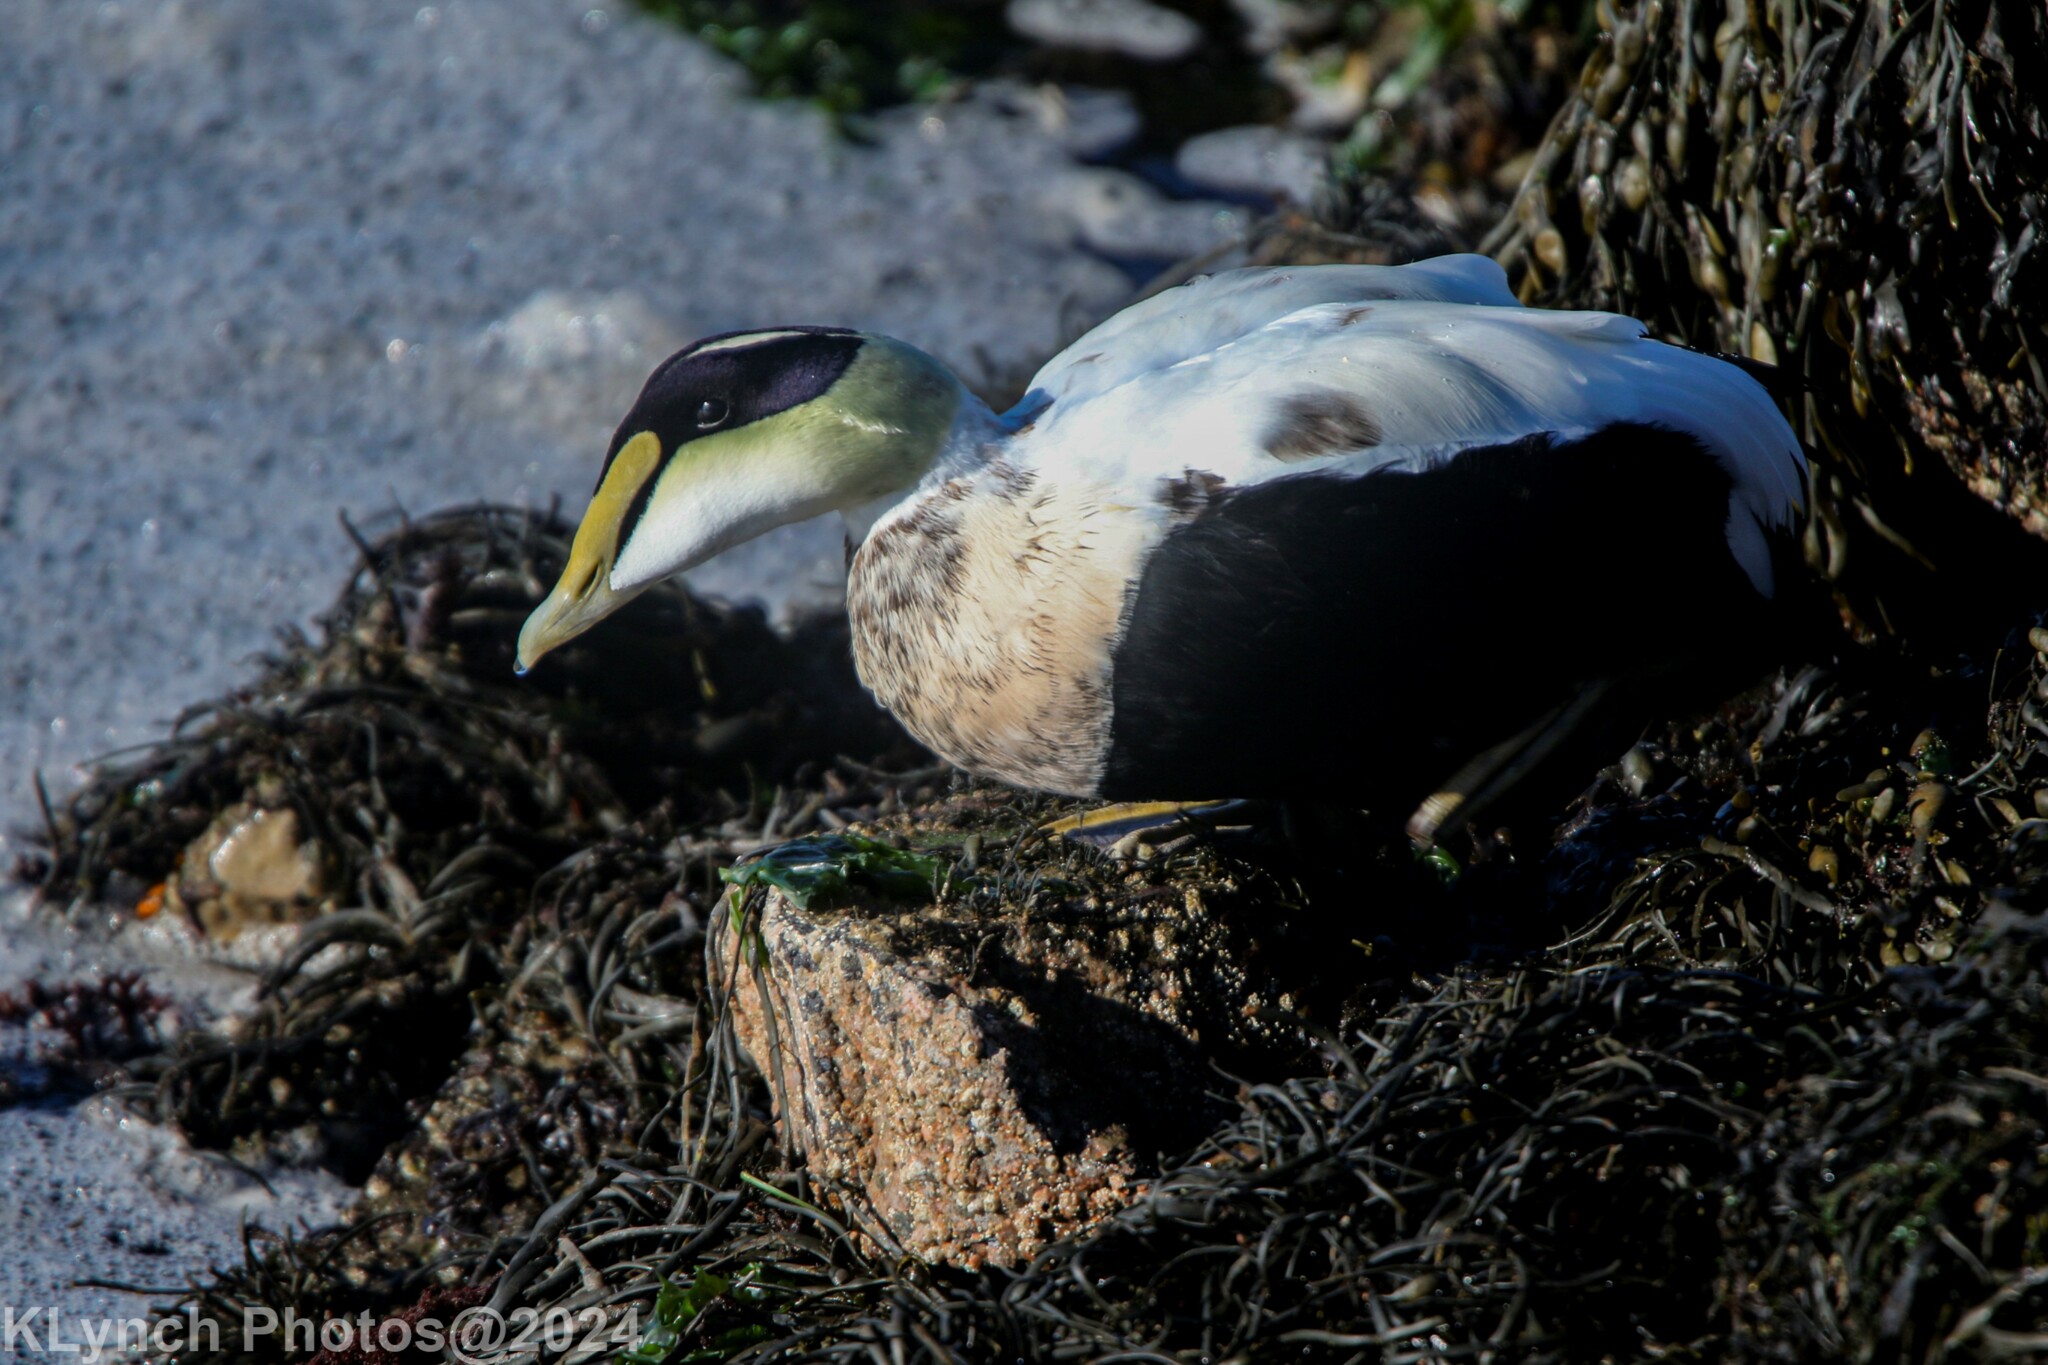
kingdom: Animalia
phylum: Chordata
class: Aves
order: Anseriformes
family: Anatidae
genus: Somateria
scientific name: Somateria mollissima
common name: Common eider
